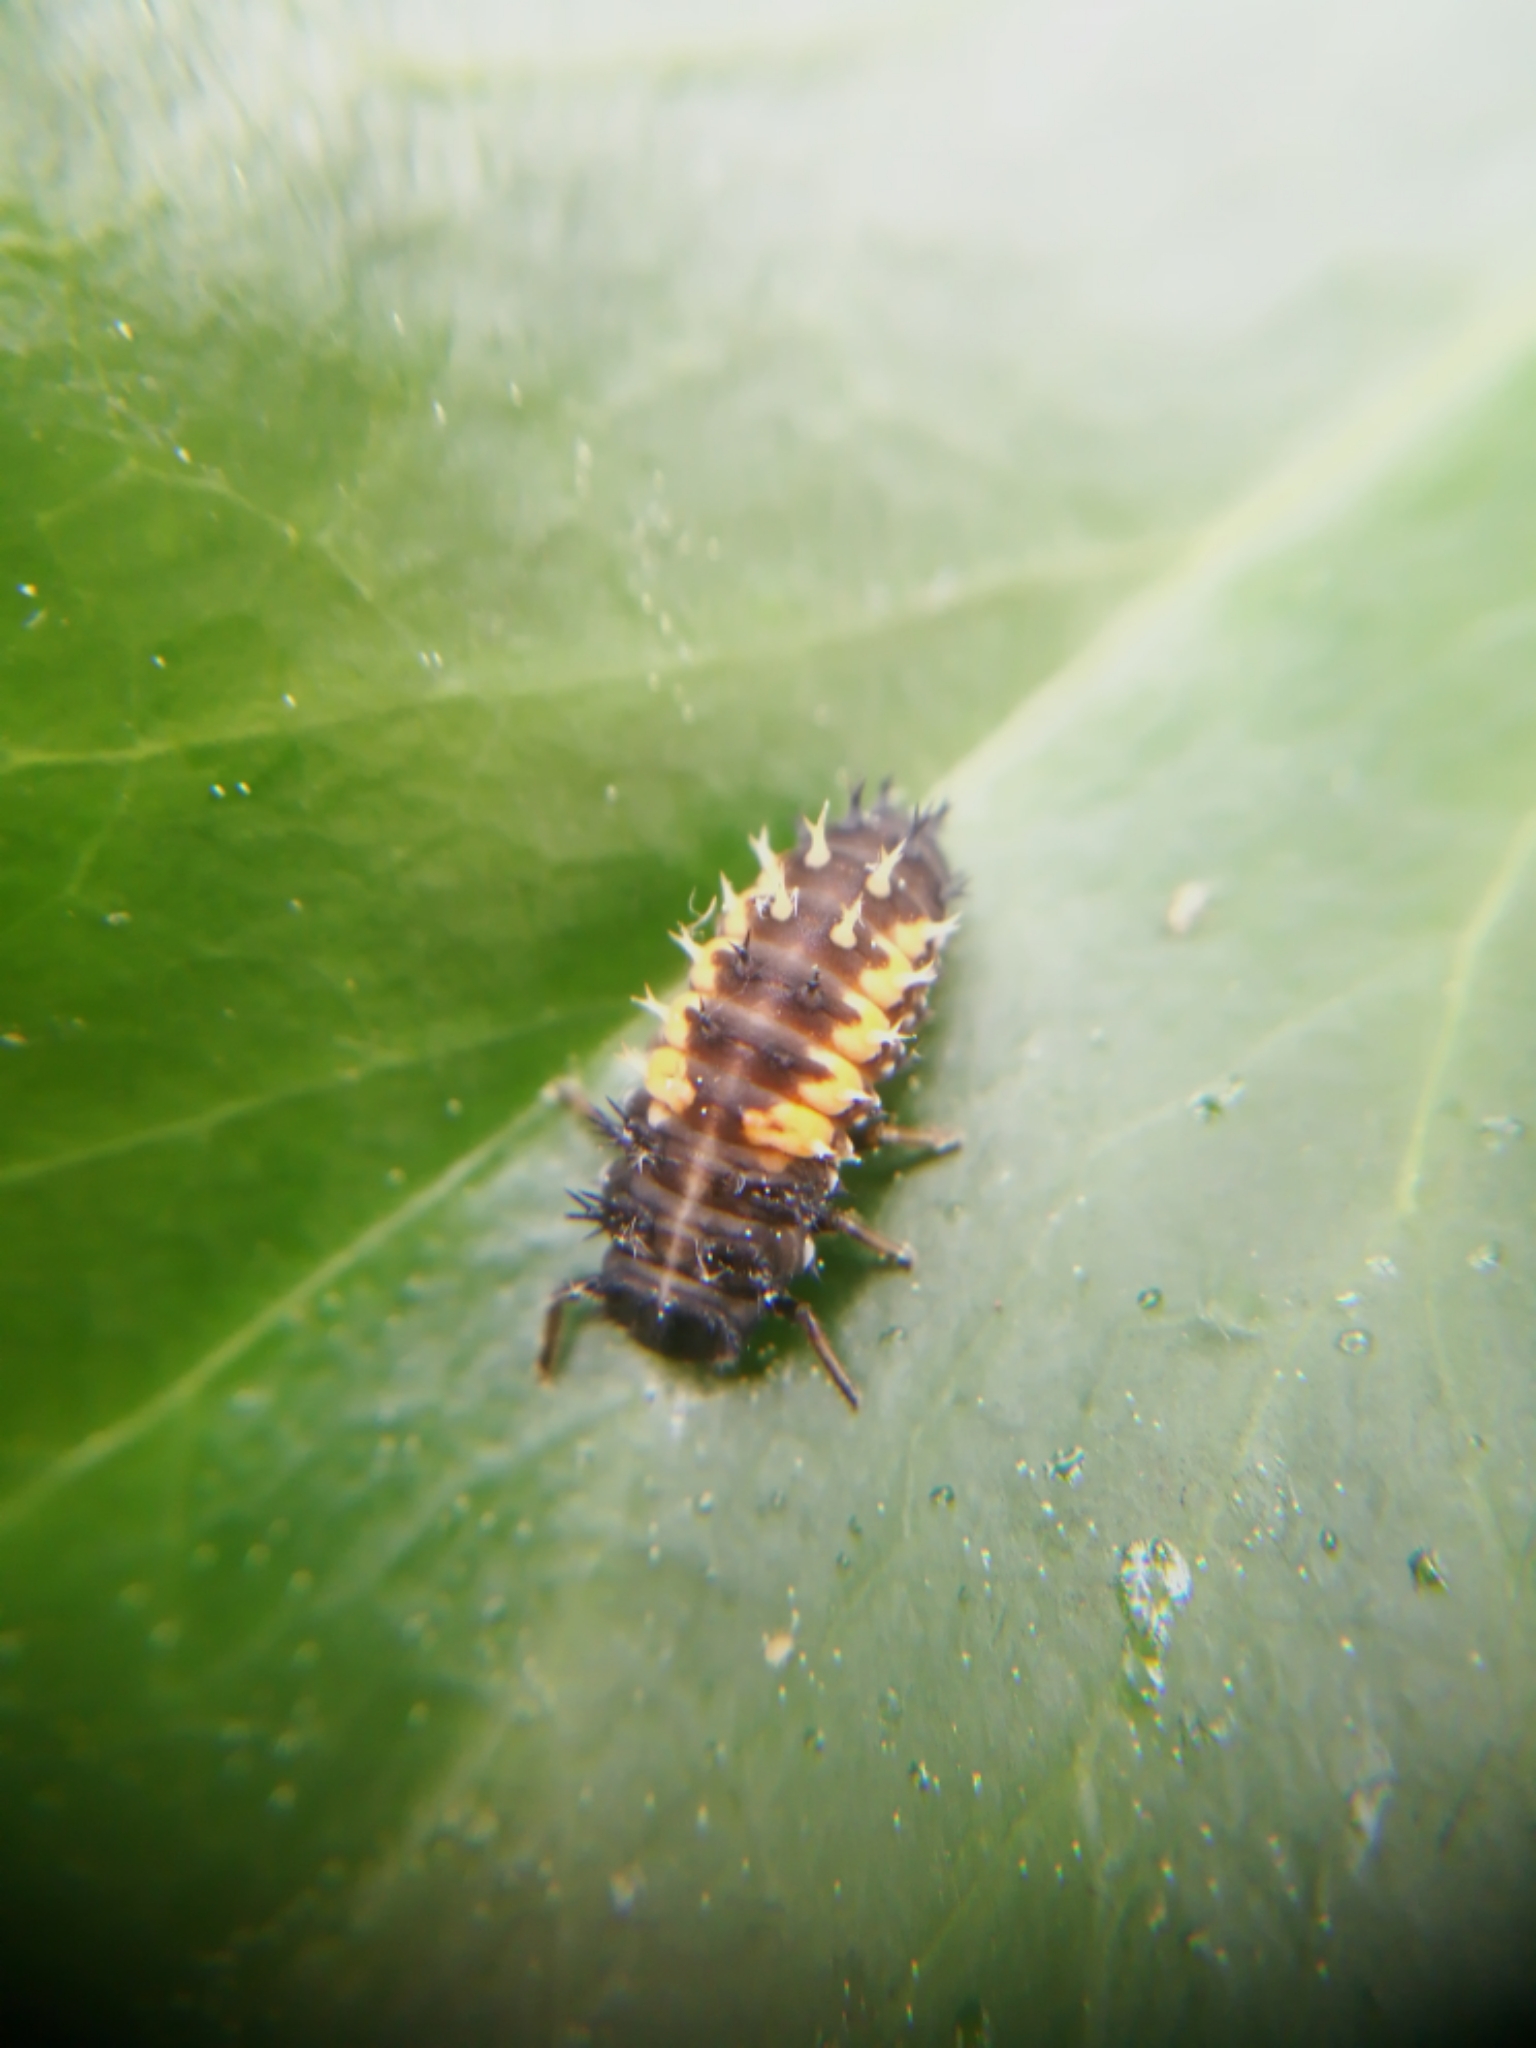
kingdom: Animalia
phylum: Arthropoda
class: Insecta
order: Coleoptera
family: Coccinellidae
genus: Harmonia
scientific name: Harmonia axyridis
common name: Harlequin ladybird
